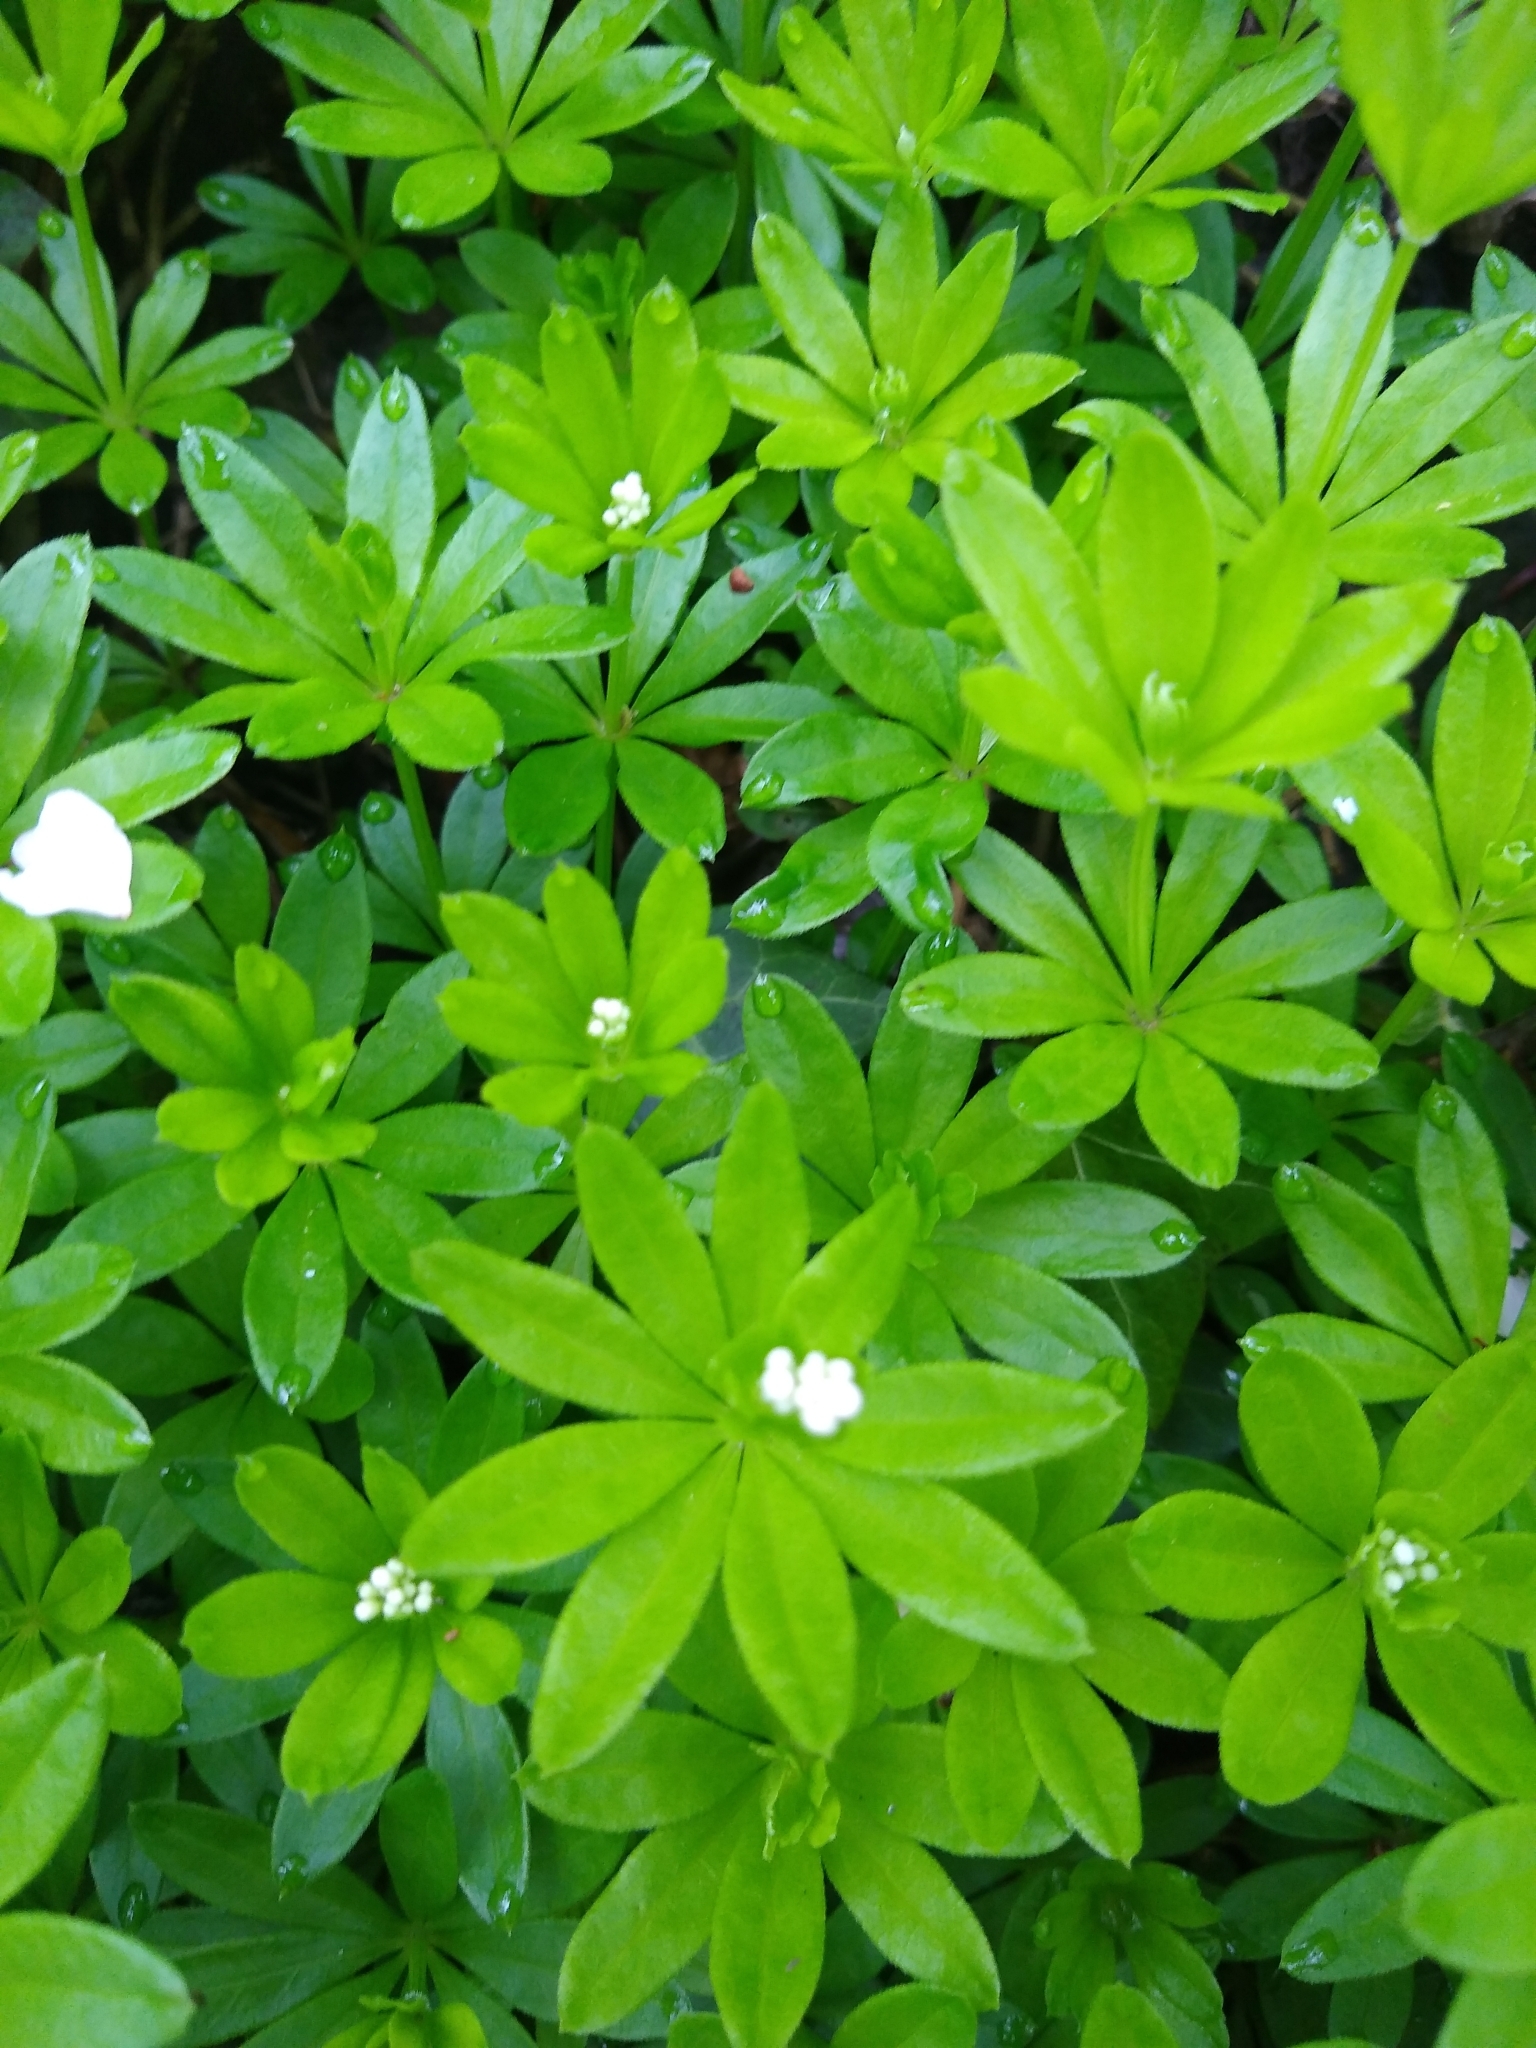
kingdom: Plantae
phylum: Tracheophyta
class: Magnoliopsida
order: Gentianales
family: Rubiaceae
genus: Galium
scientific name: Galium odoratum
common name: Sweet woodruff
